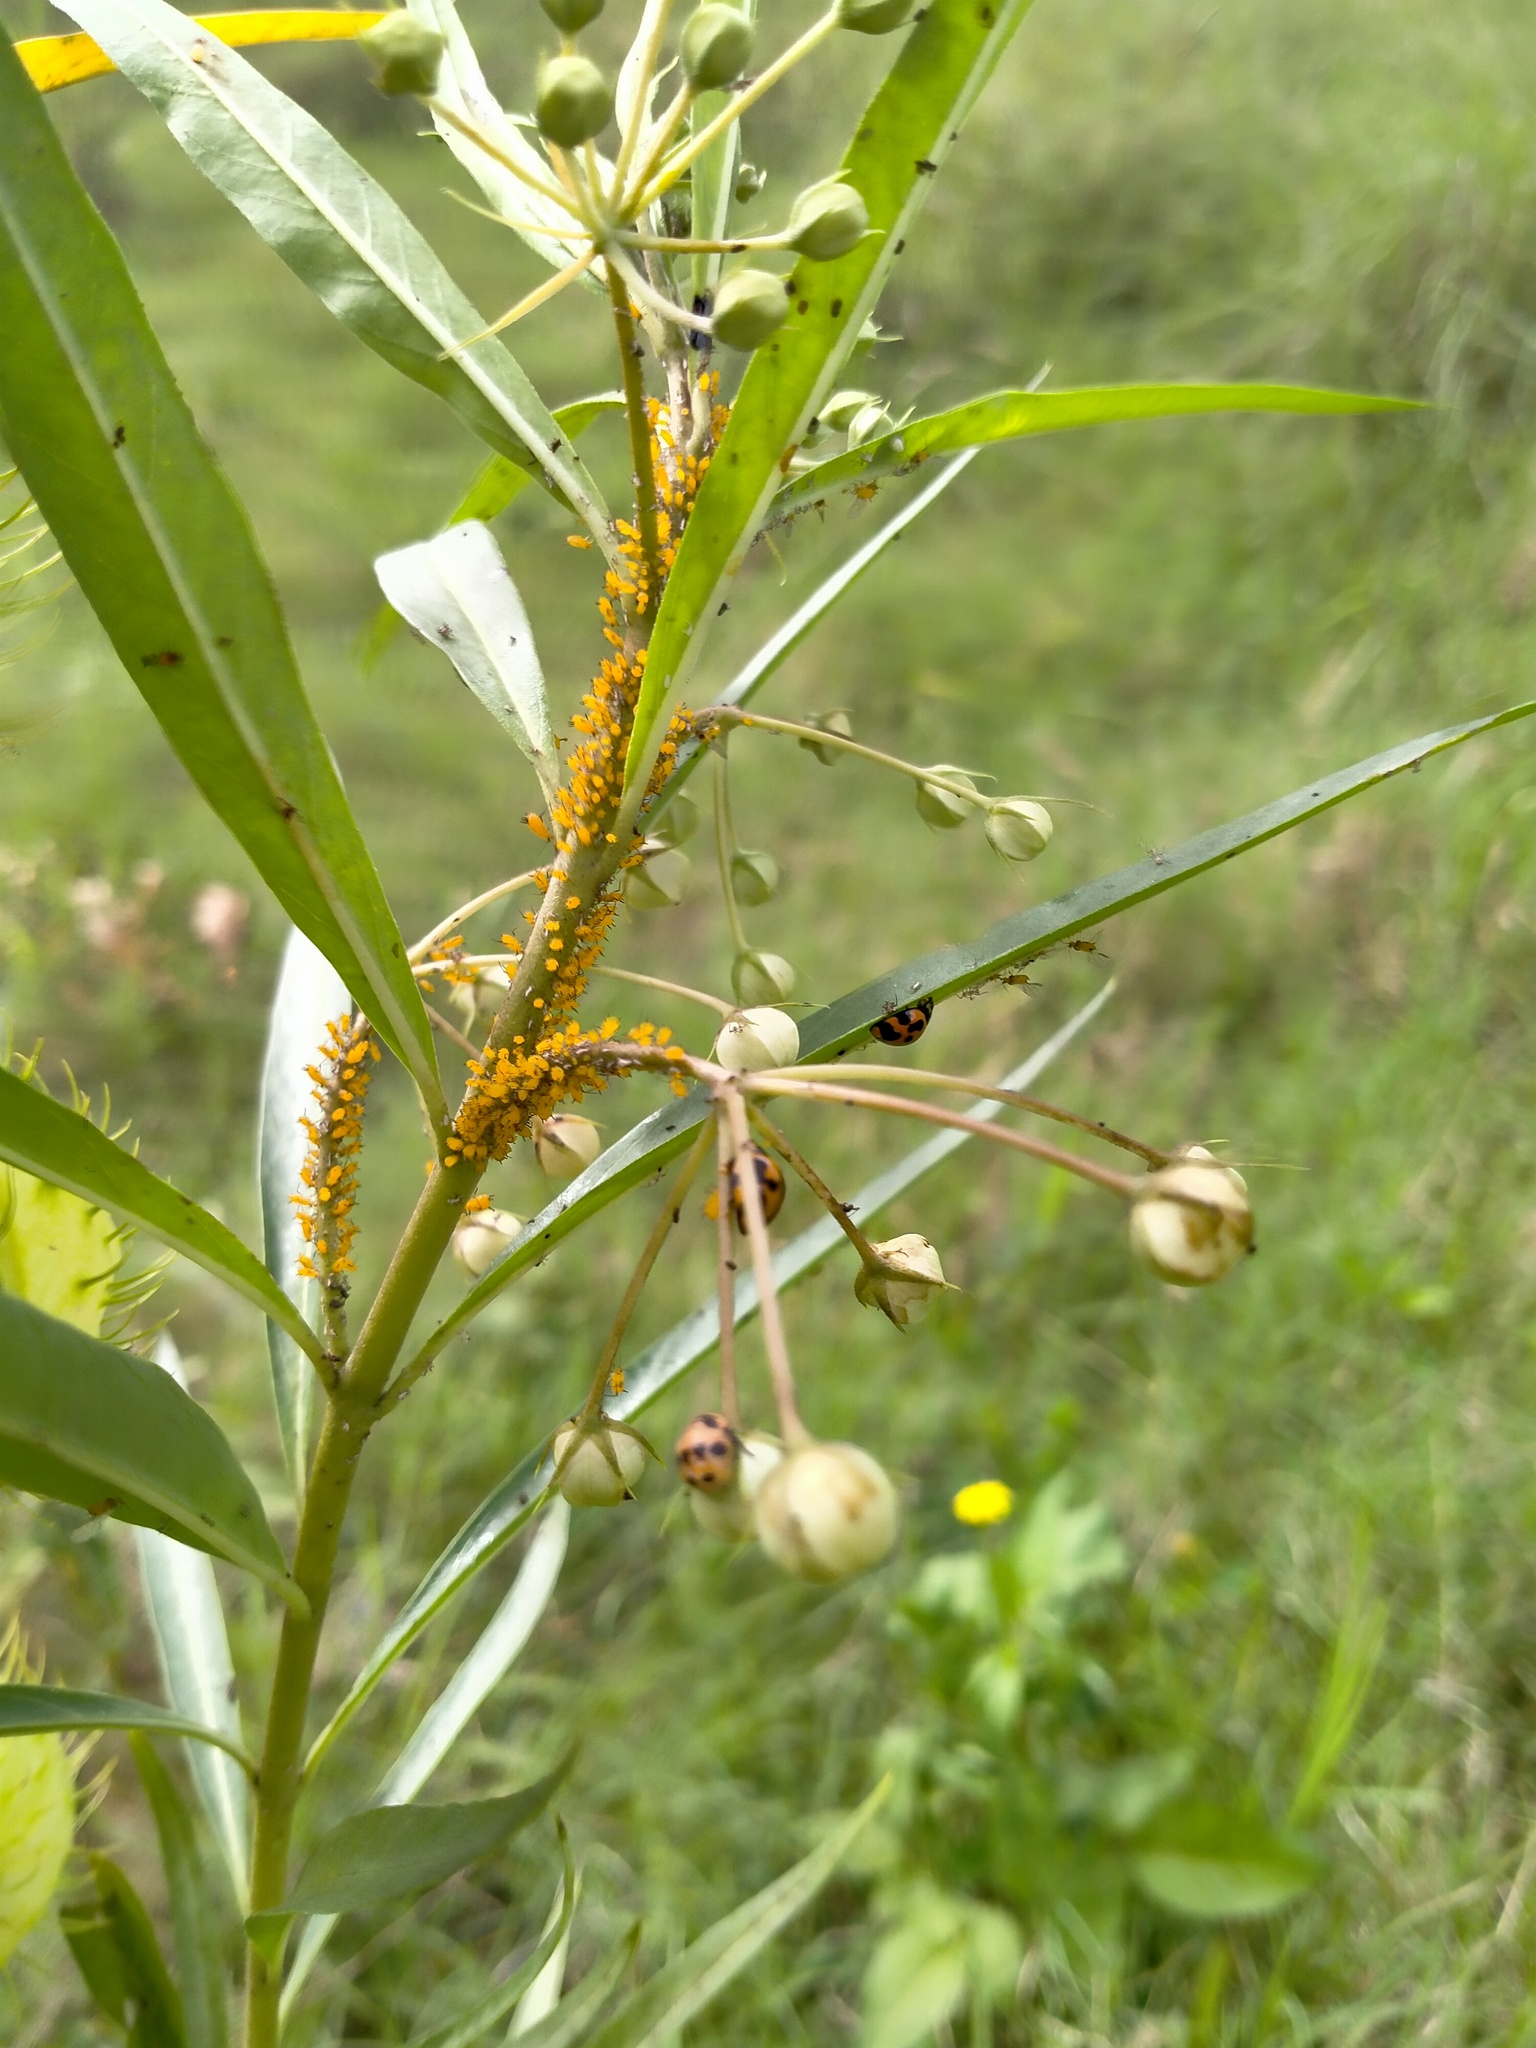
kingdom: Animalia
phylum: Arthropoda
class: Insecta
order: Hemiptera
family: Aphididae
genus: Aphis
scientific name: Aphis nerii
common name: Oleander aphid
